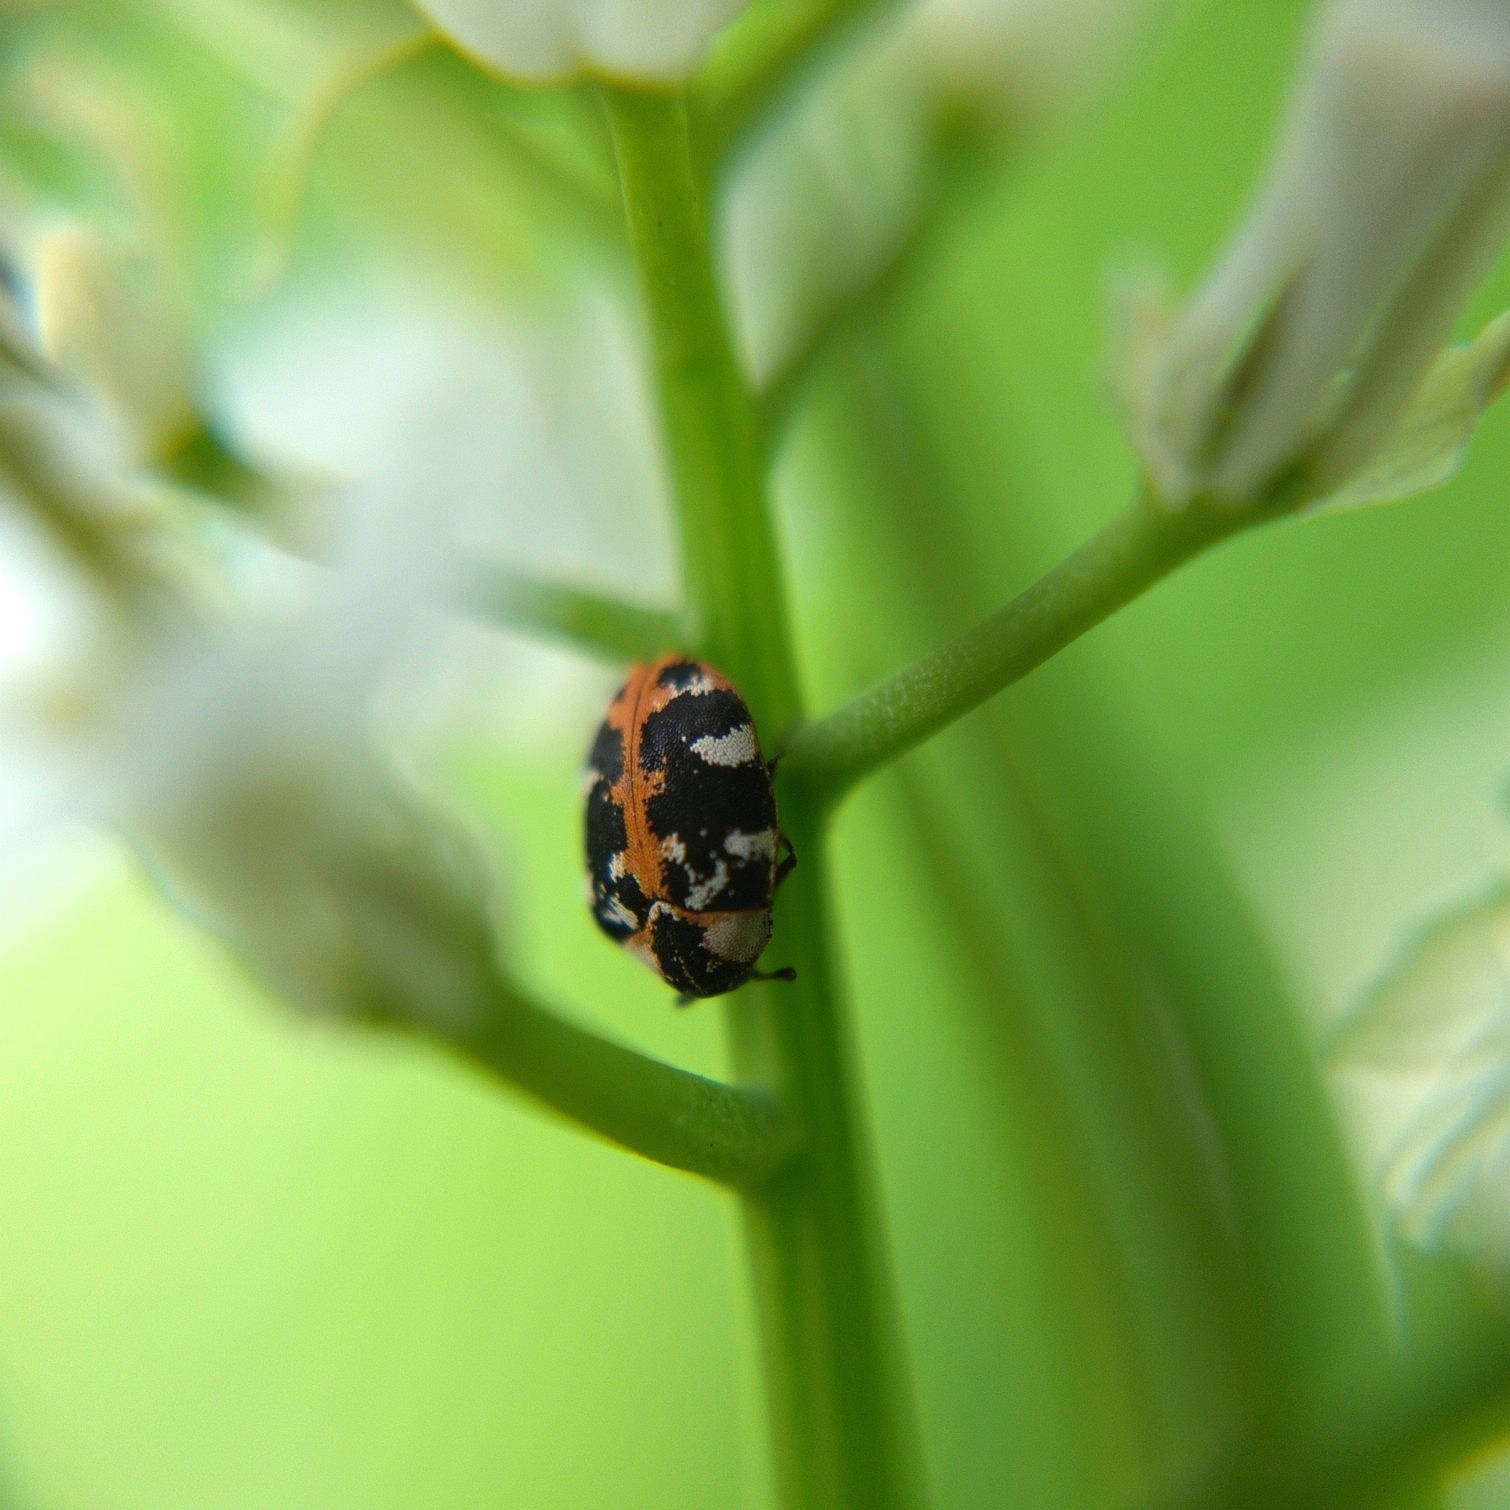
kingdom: Animalia
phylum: Arthropoda
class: Insecta
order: Coleoptera
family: Dermestidae
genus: Anthrenus
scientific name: Anthrenus scrophulariae
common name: Buffalo carpet beetle
